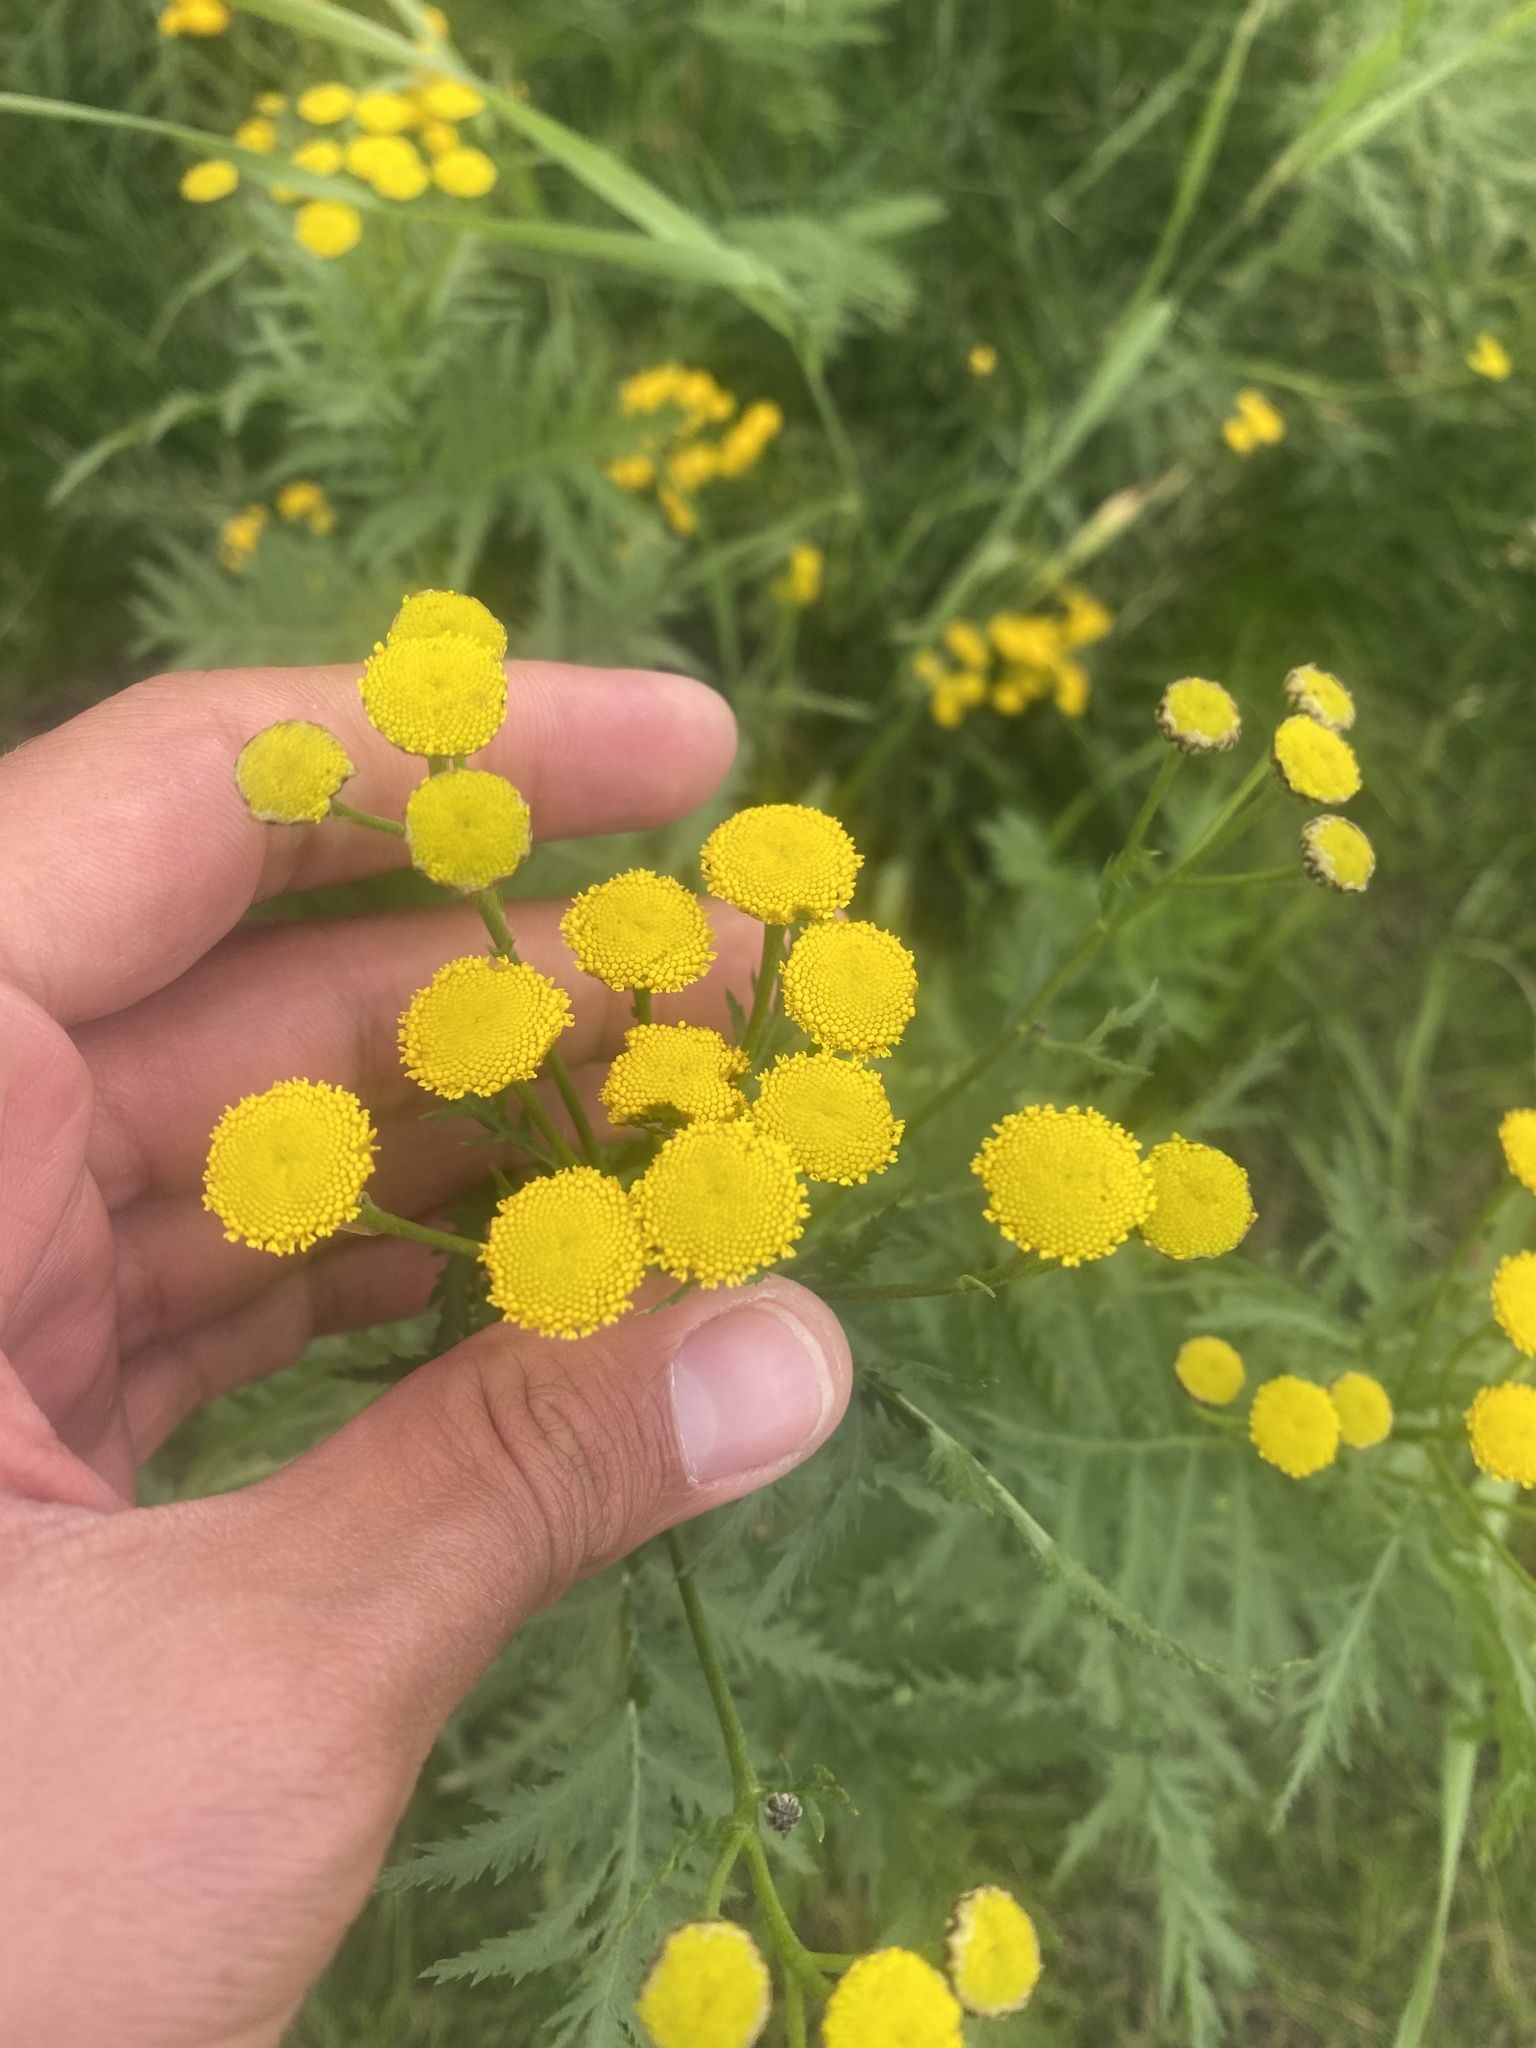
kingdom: Plantae
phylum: Tracheophyta
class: Magnoliopsida
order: Asterales
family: Asteraceae
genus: Tanacetum
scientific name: Tanacetum vulgare
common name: Common tansy
